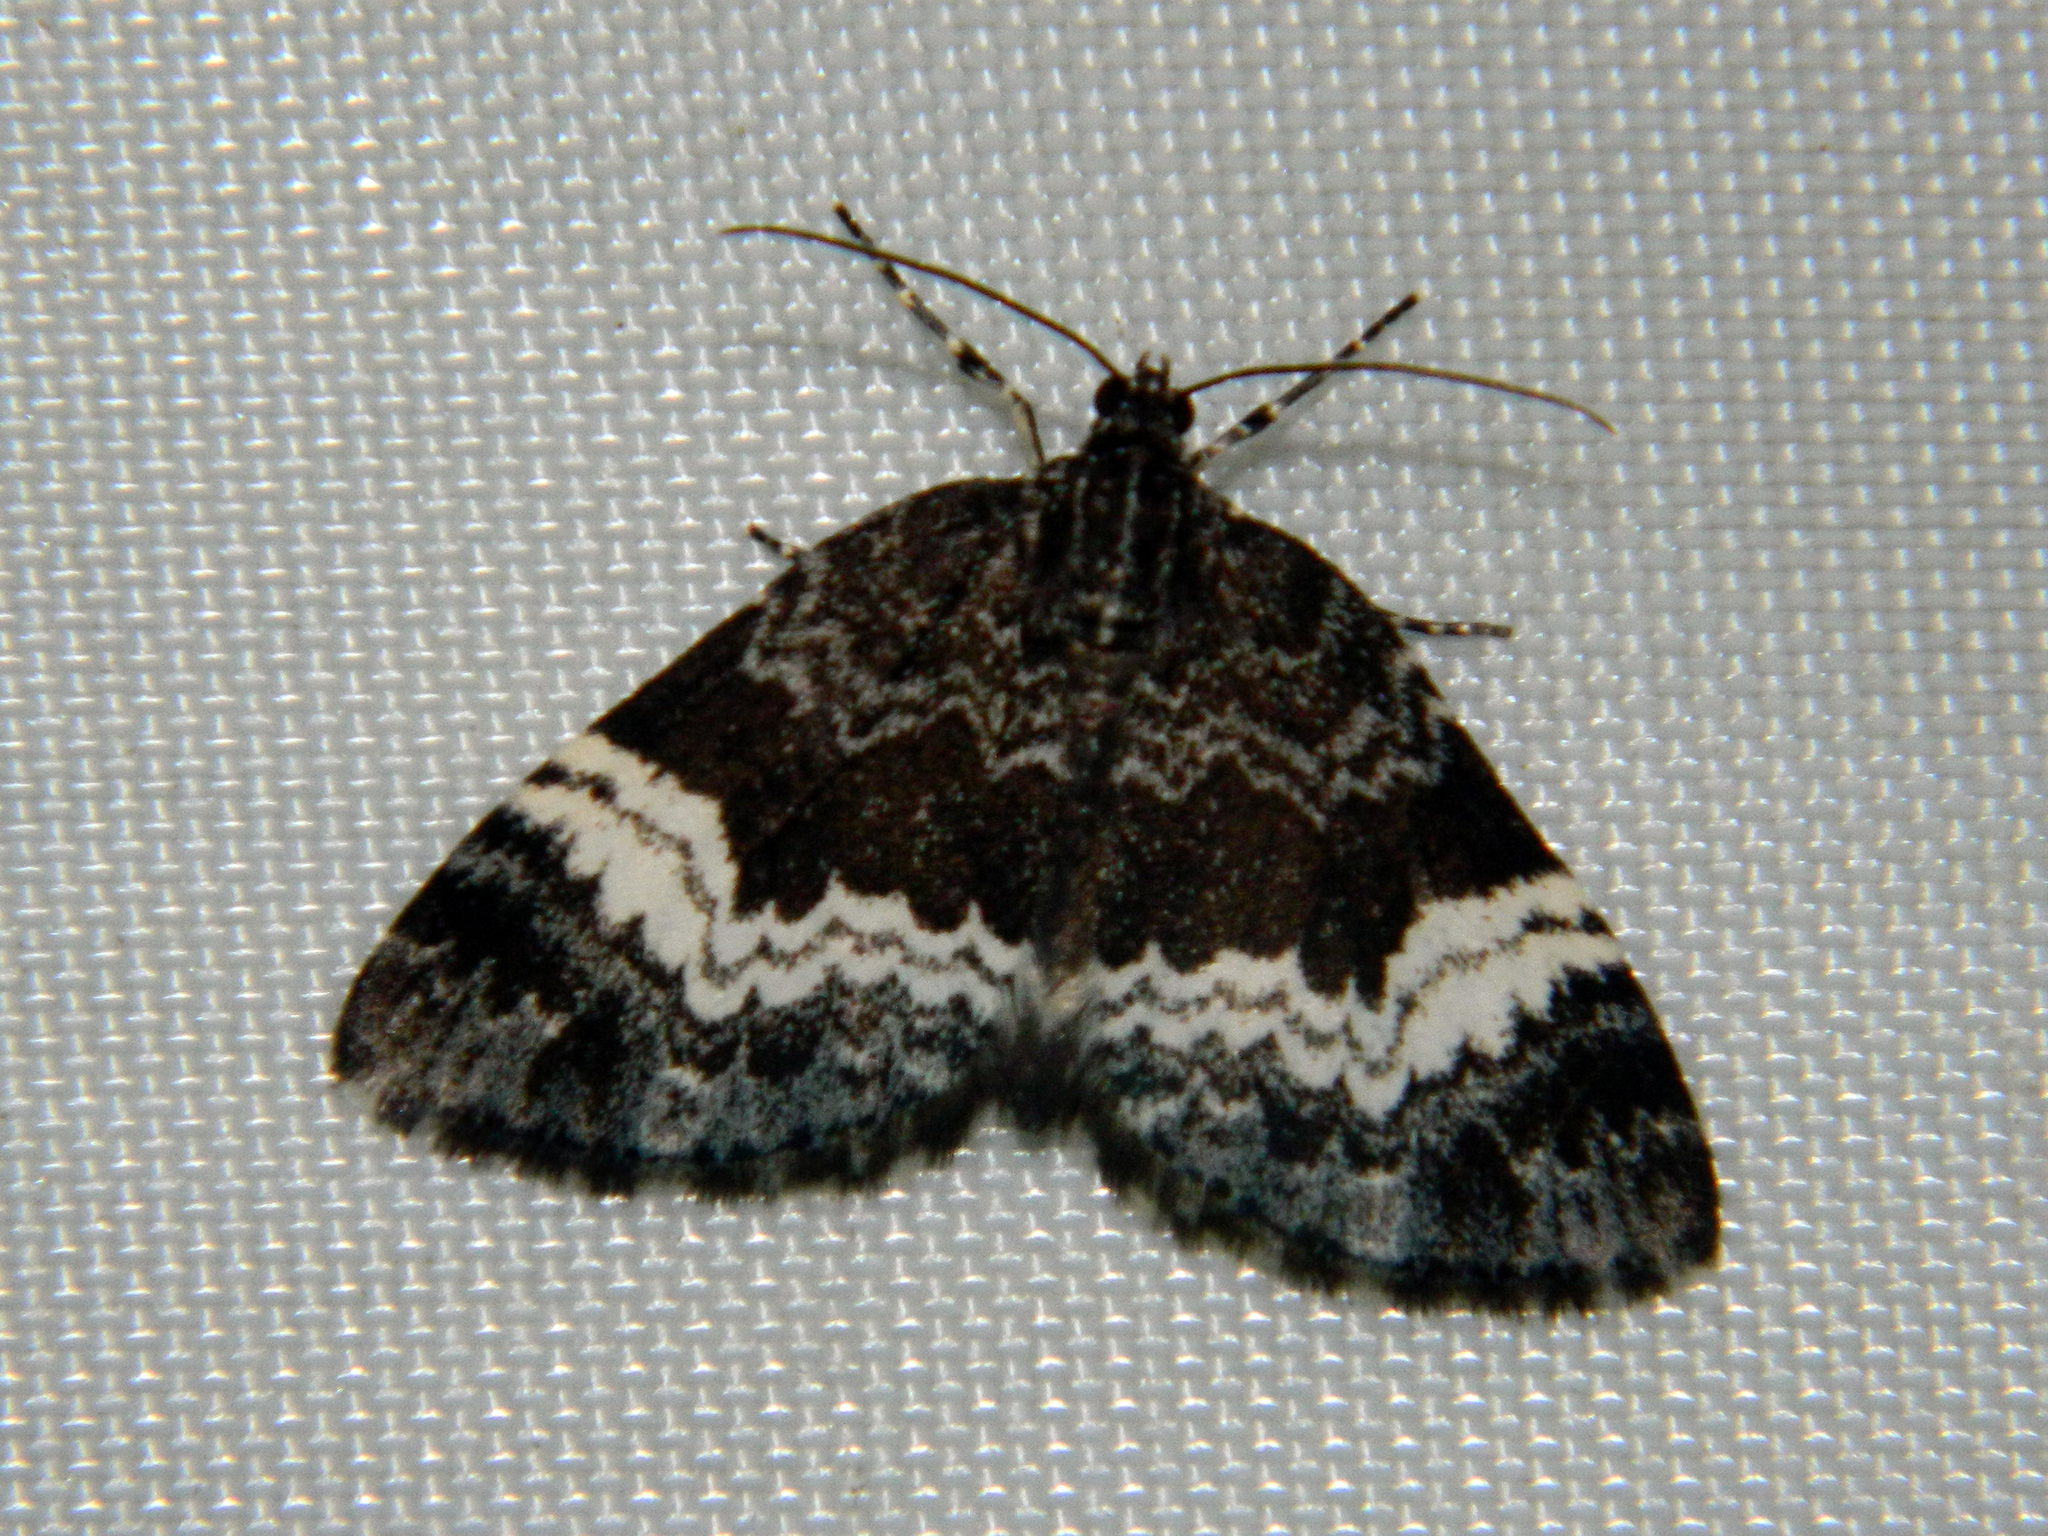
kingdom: Animalia
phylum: Arthropoda
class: Insecta
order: Lepidoptera
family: Geometridae
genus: Spargania
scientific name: Spargania luctuata
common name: White-banded carpet
